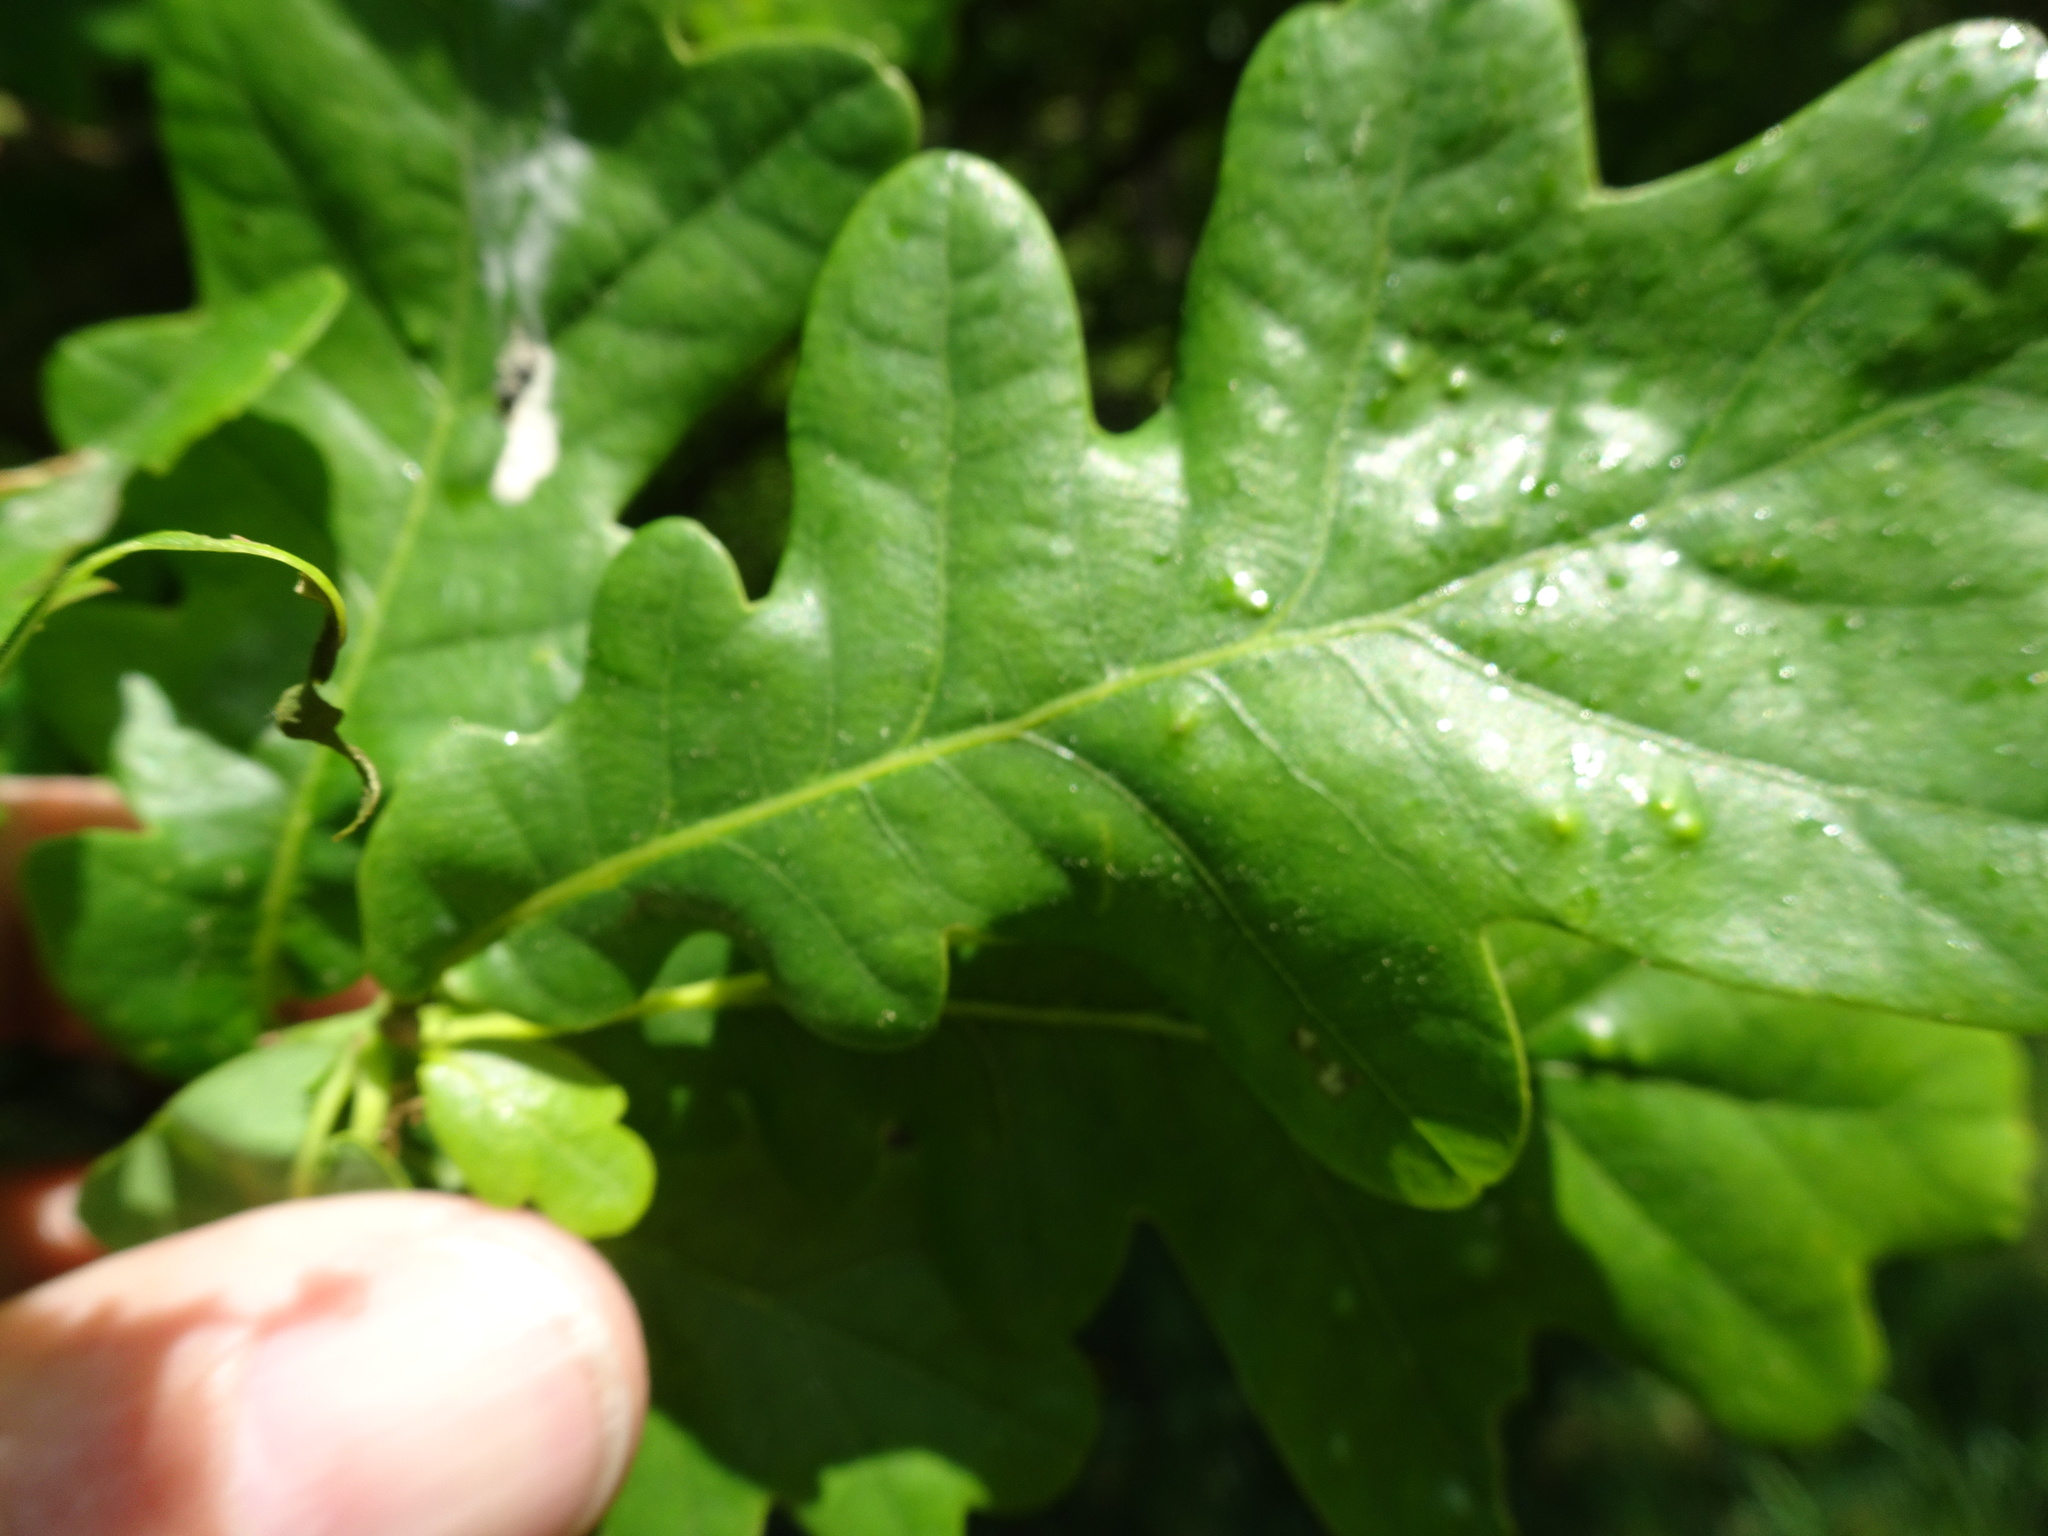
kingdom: Plantae
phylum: Tracheophyta
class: Magnoliopsida
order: Fagales
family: Fagaceae
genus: Quercus
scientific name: Quercus robur
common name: Pedunculate oak
